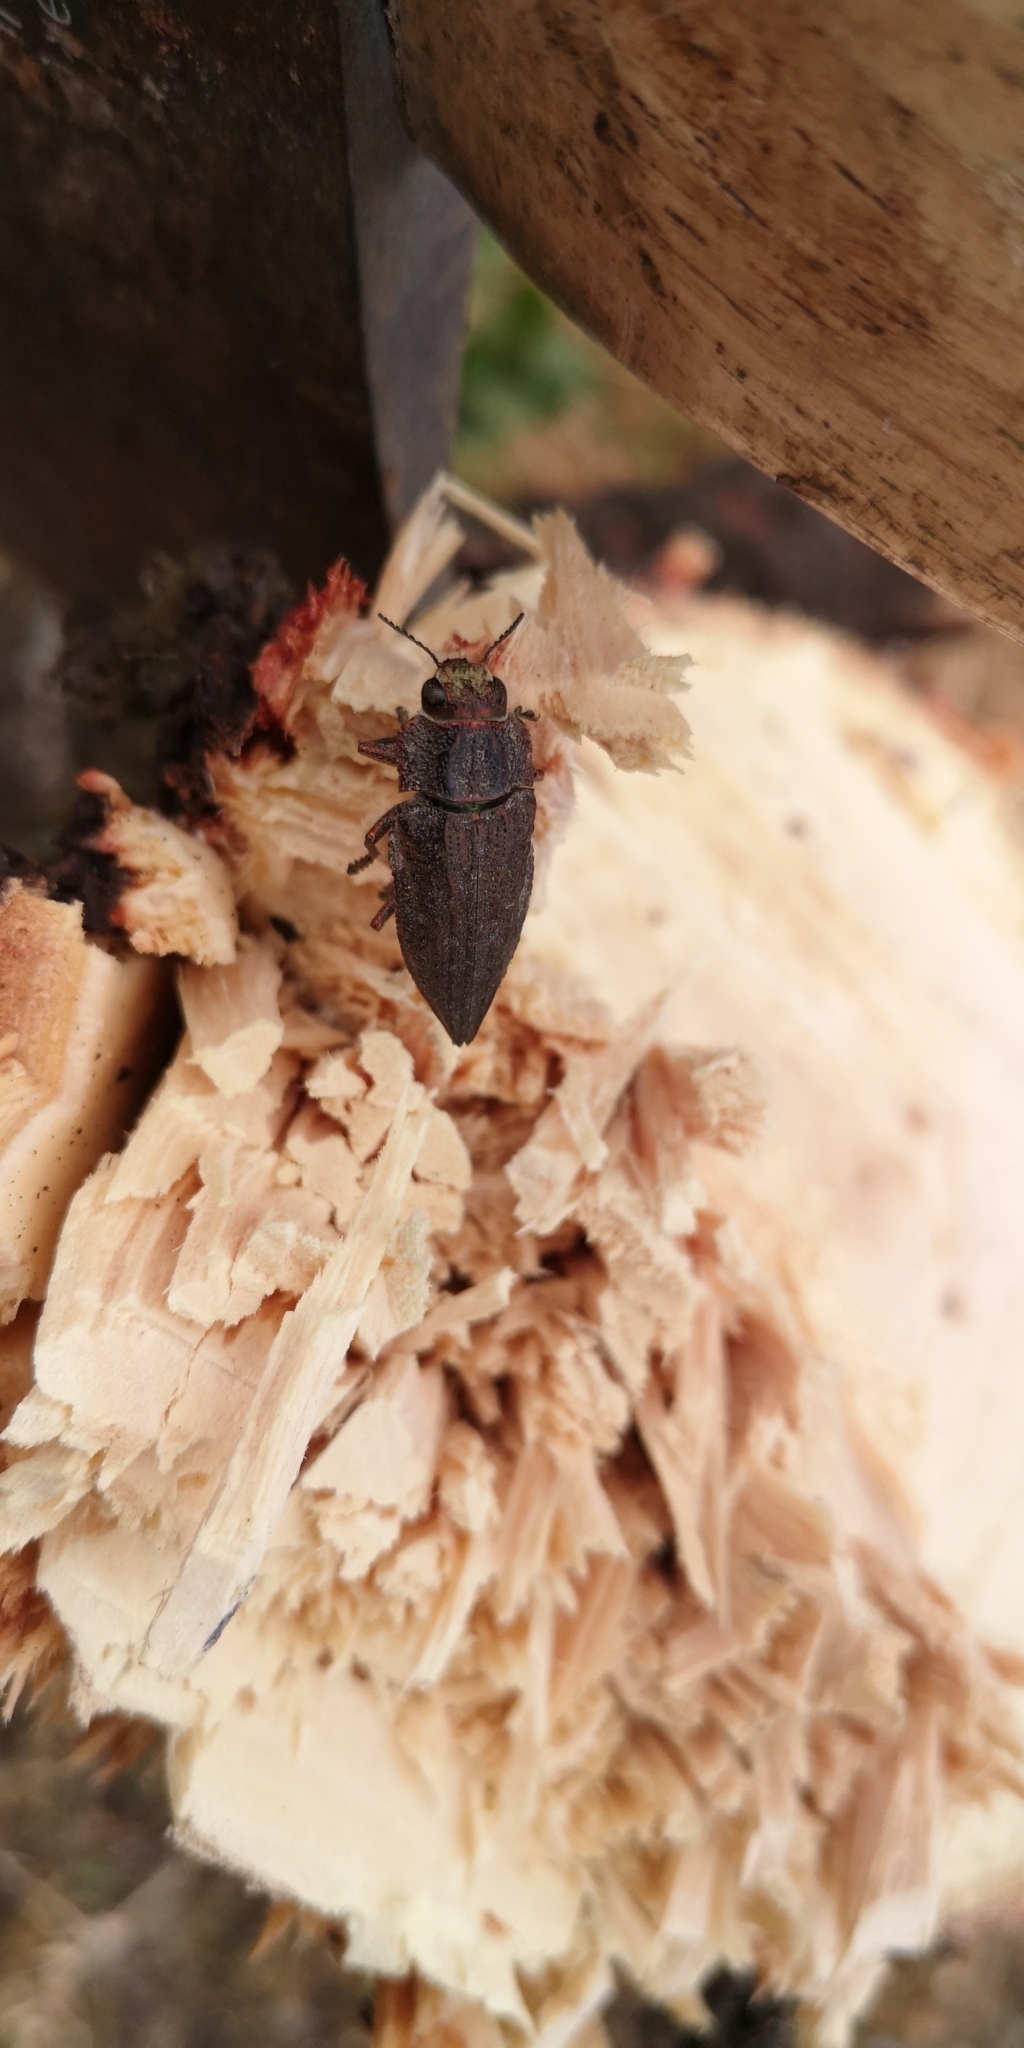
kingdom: Animalia
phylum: Arthropoda
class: Insecta
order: Coleoptera
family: Buprestidae
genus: Ectinogonia
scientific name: Ectinogonia buquetii
